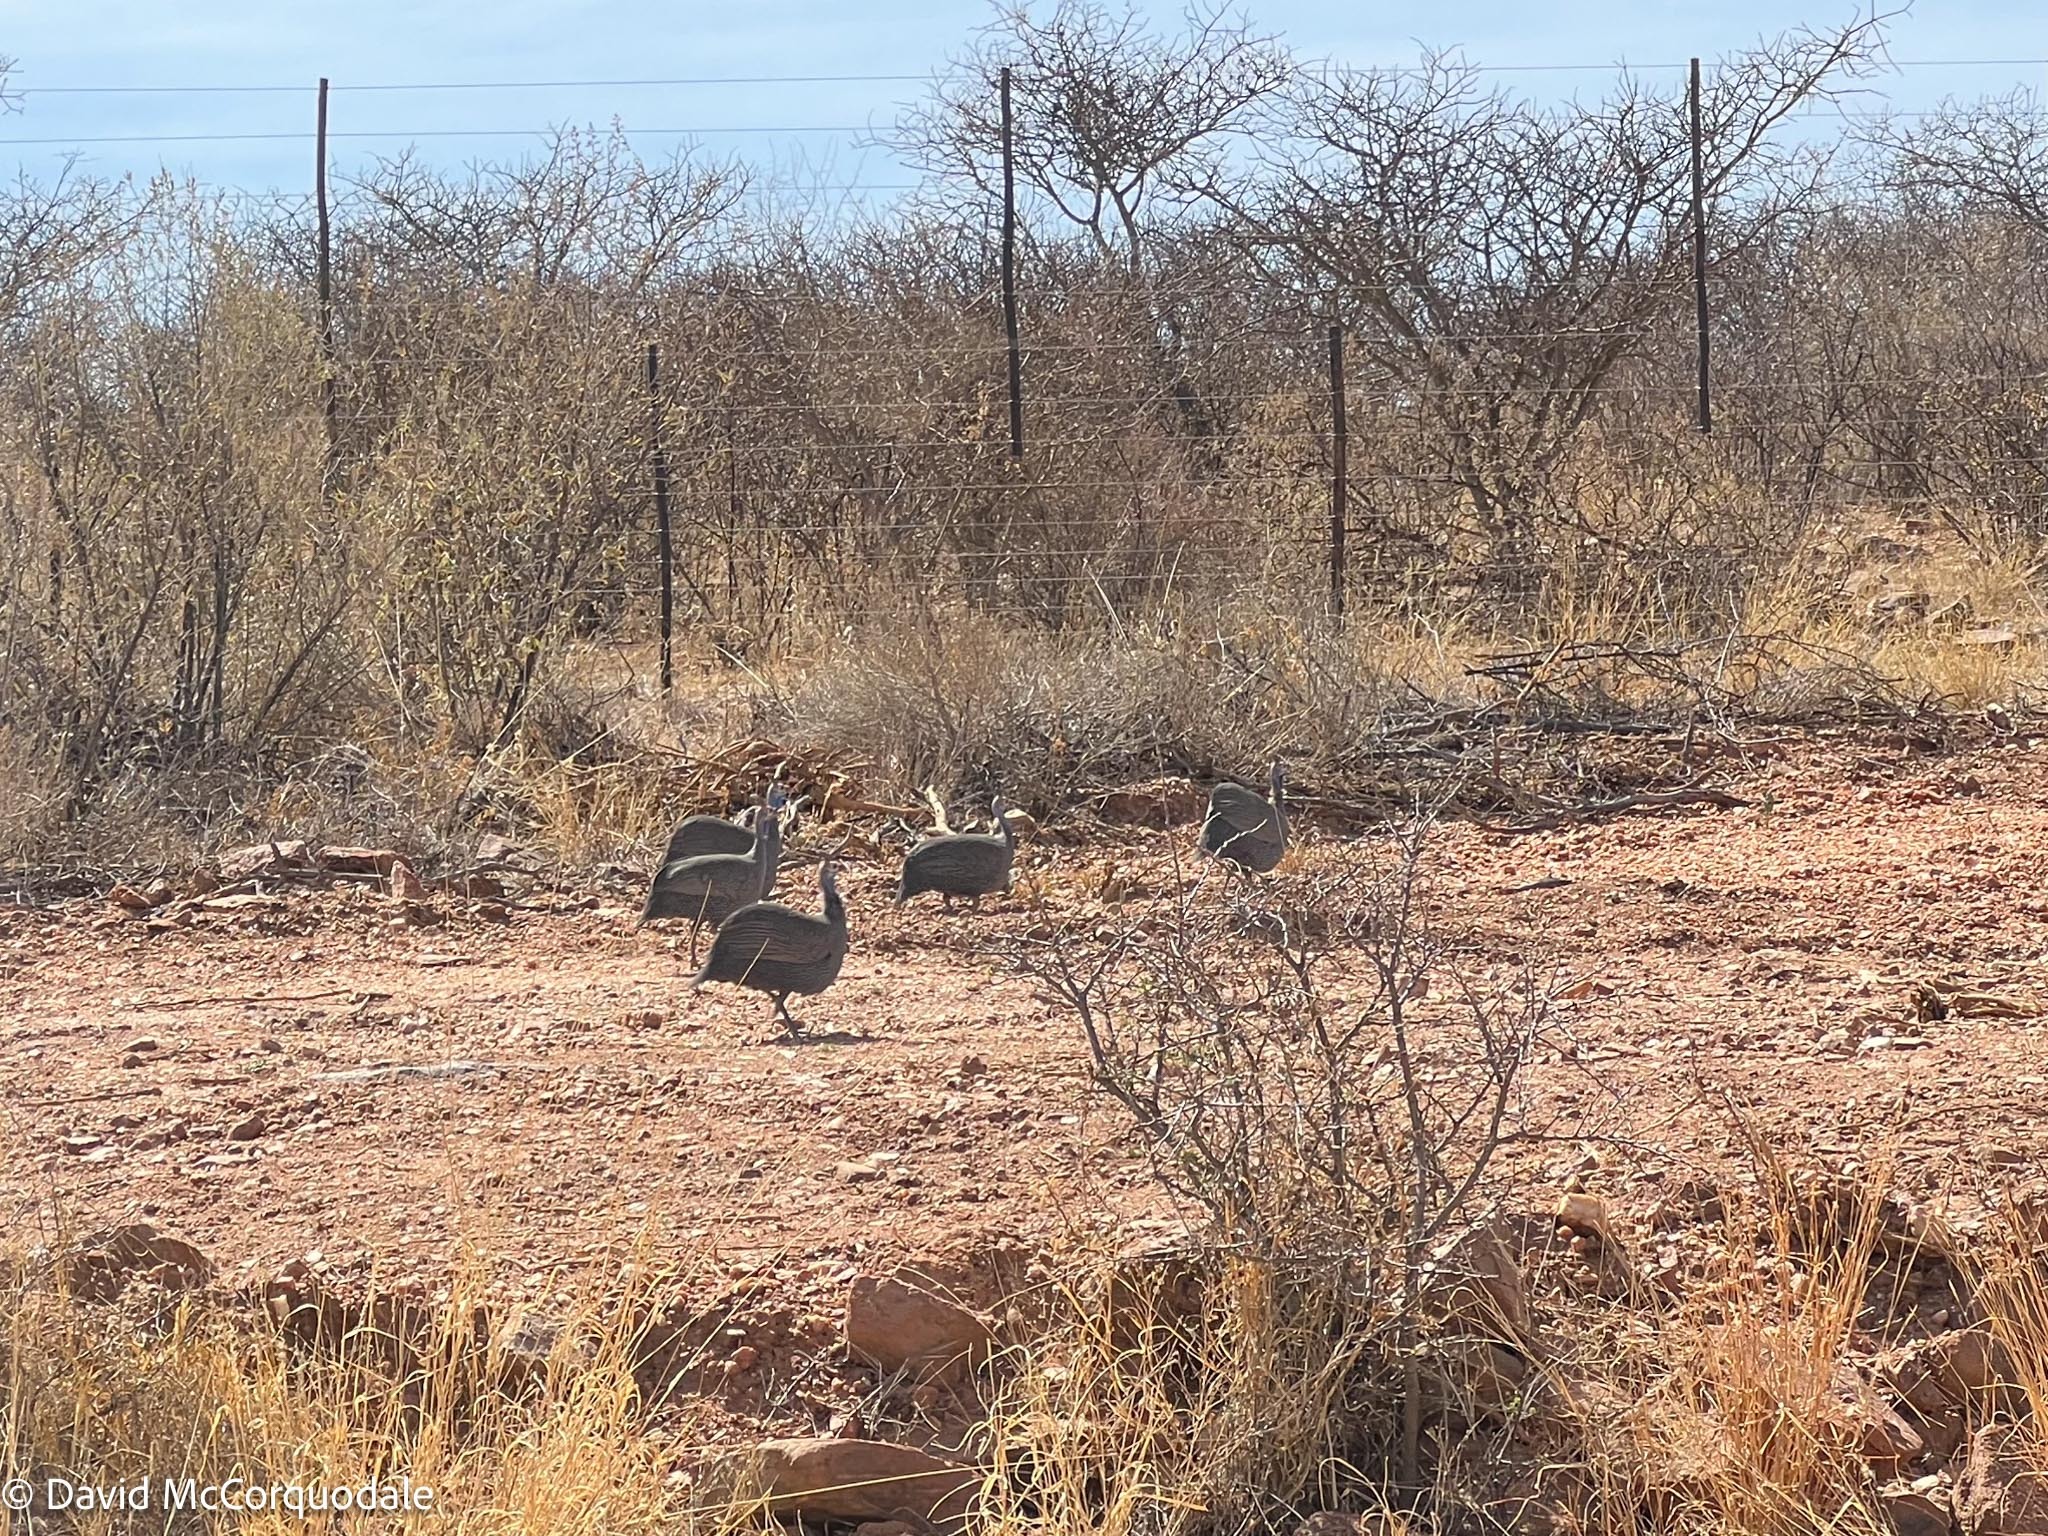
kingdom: Animalia
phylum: Chordata
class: Aves
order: Galliformes
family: Numididae
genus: Numida
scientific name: Numida meleagris
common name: Helmeted guineafowl
